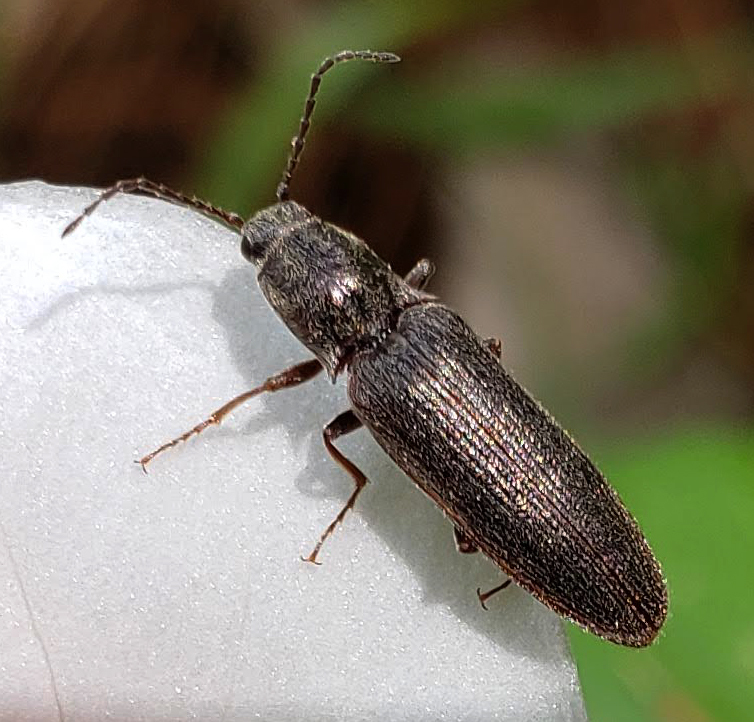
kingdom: Animalia
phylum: Arthropoda
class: Insecta
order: Coleoptera
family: Elateridae
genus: Sylvanelater
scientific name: Sylvanelater cylindriformis
